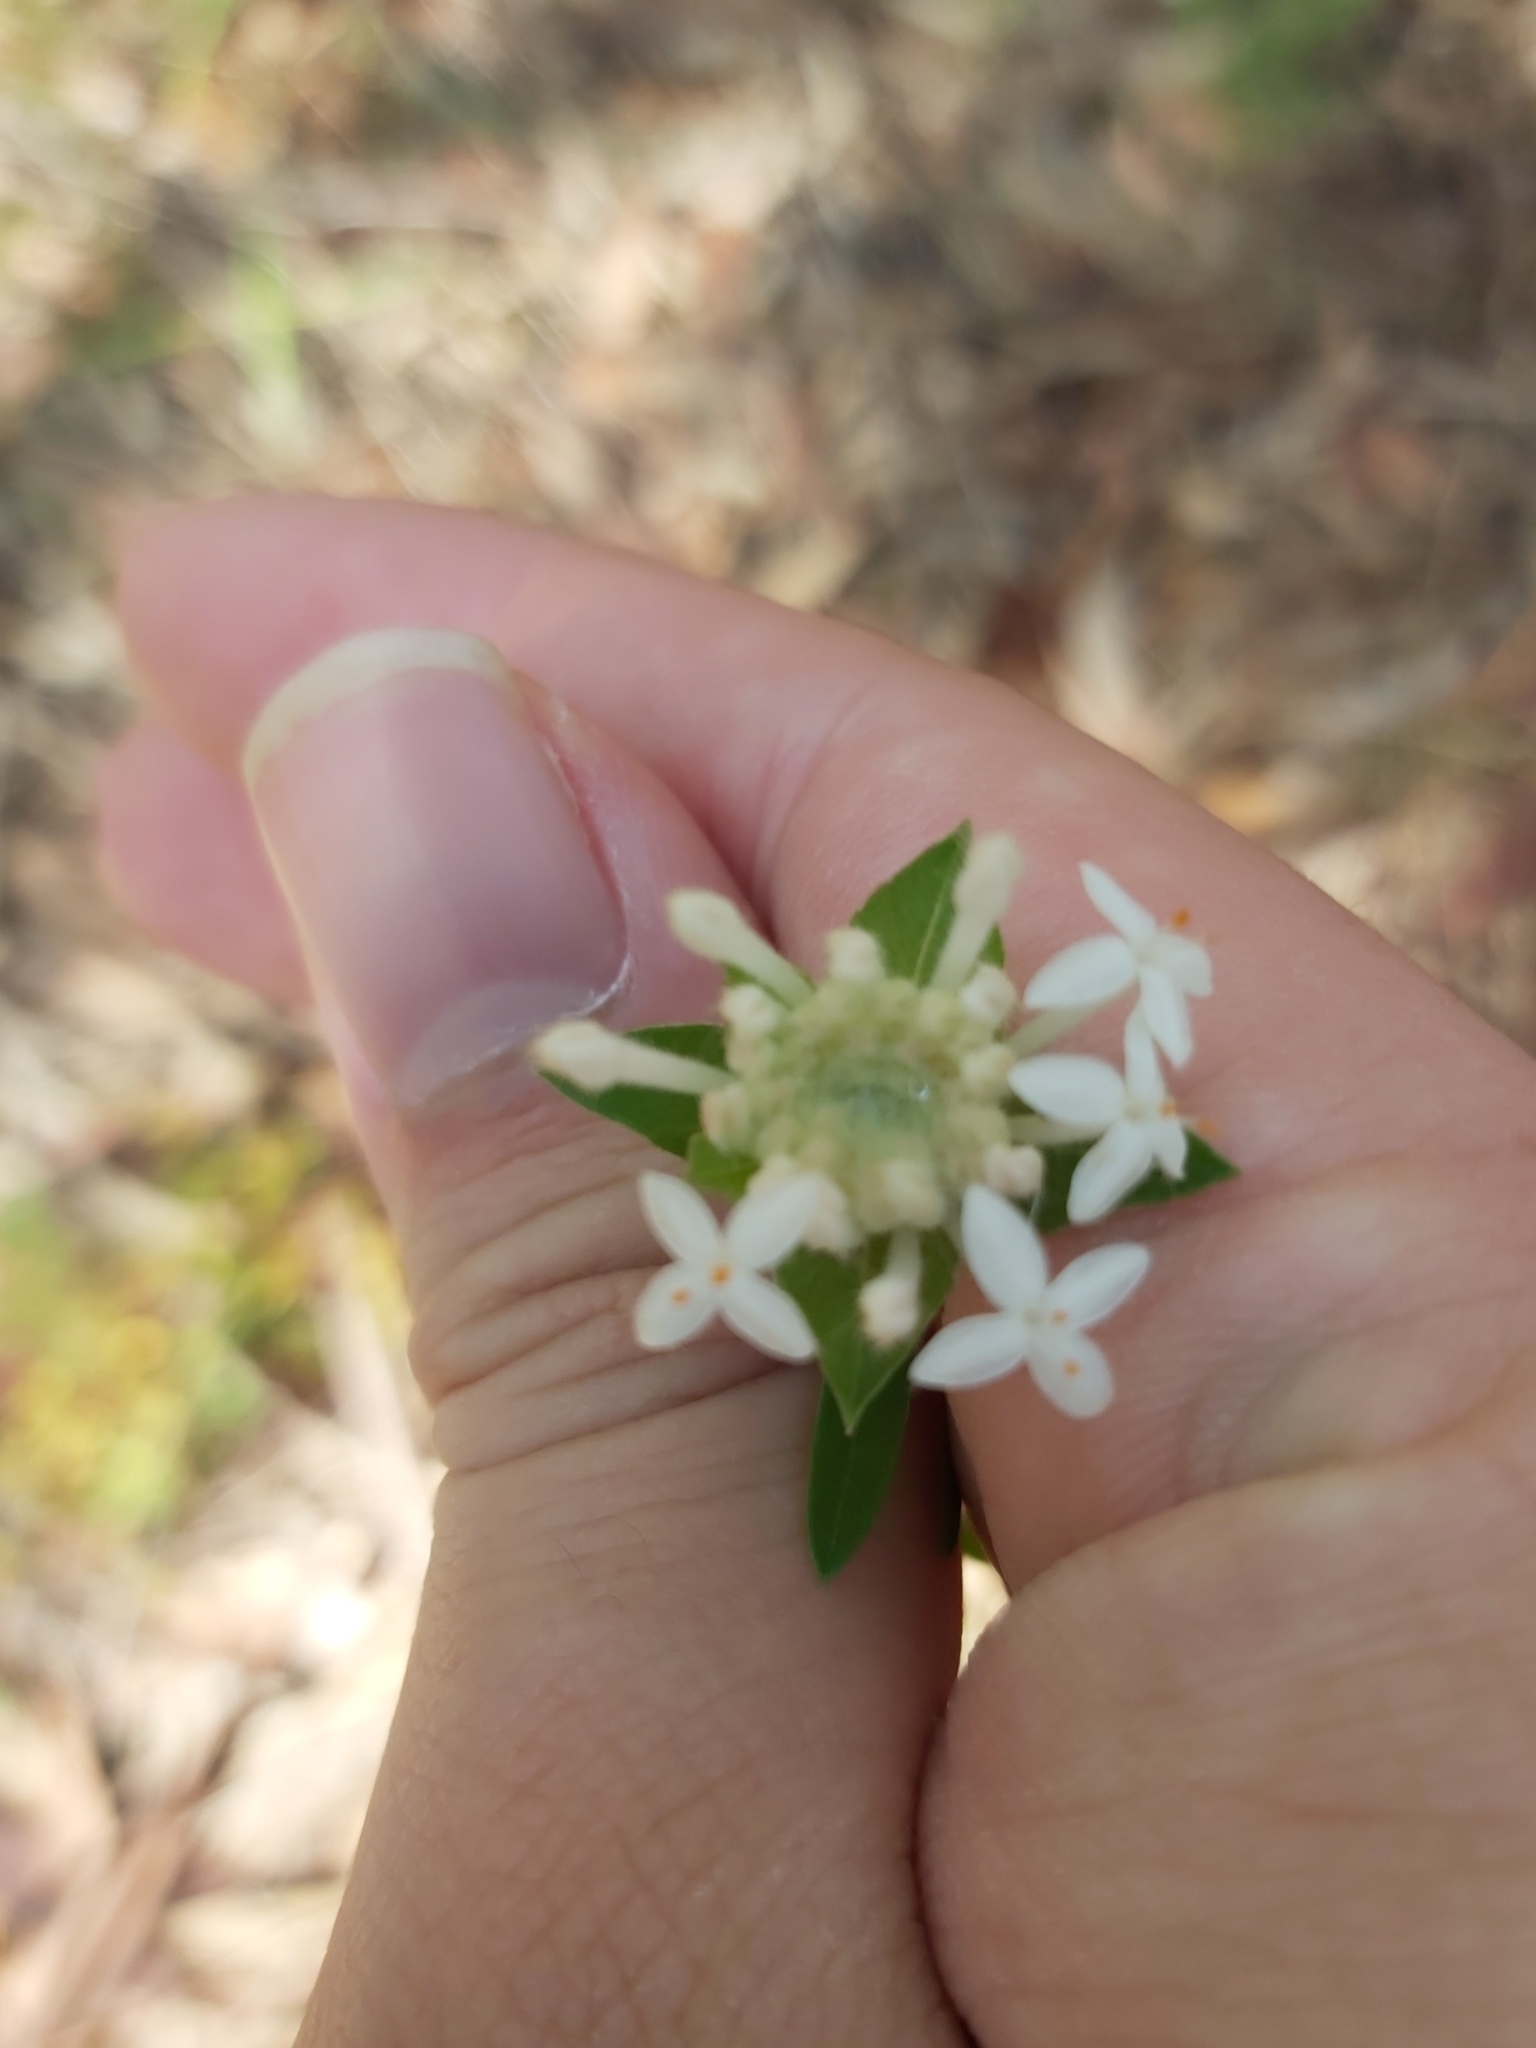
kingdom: Plantae
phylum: Tracheophyta
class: Magnoliopsida
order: Malvales
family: Thymelaeaceae
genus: Pimelea
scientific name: Pimelea linifolia
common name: Queen-of-the-bush
